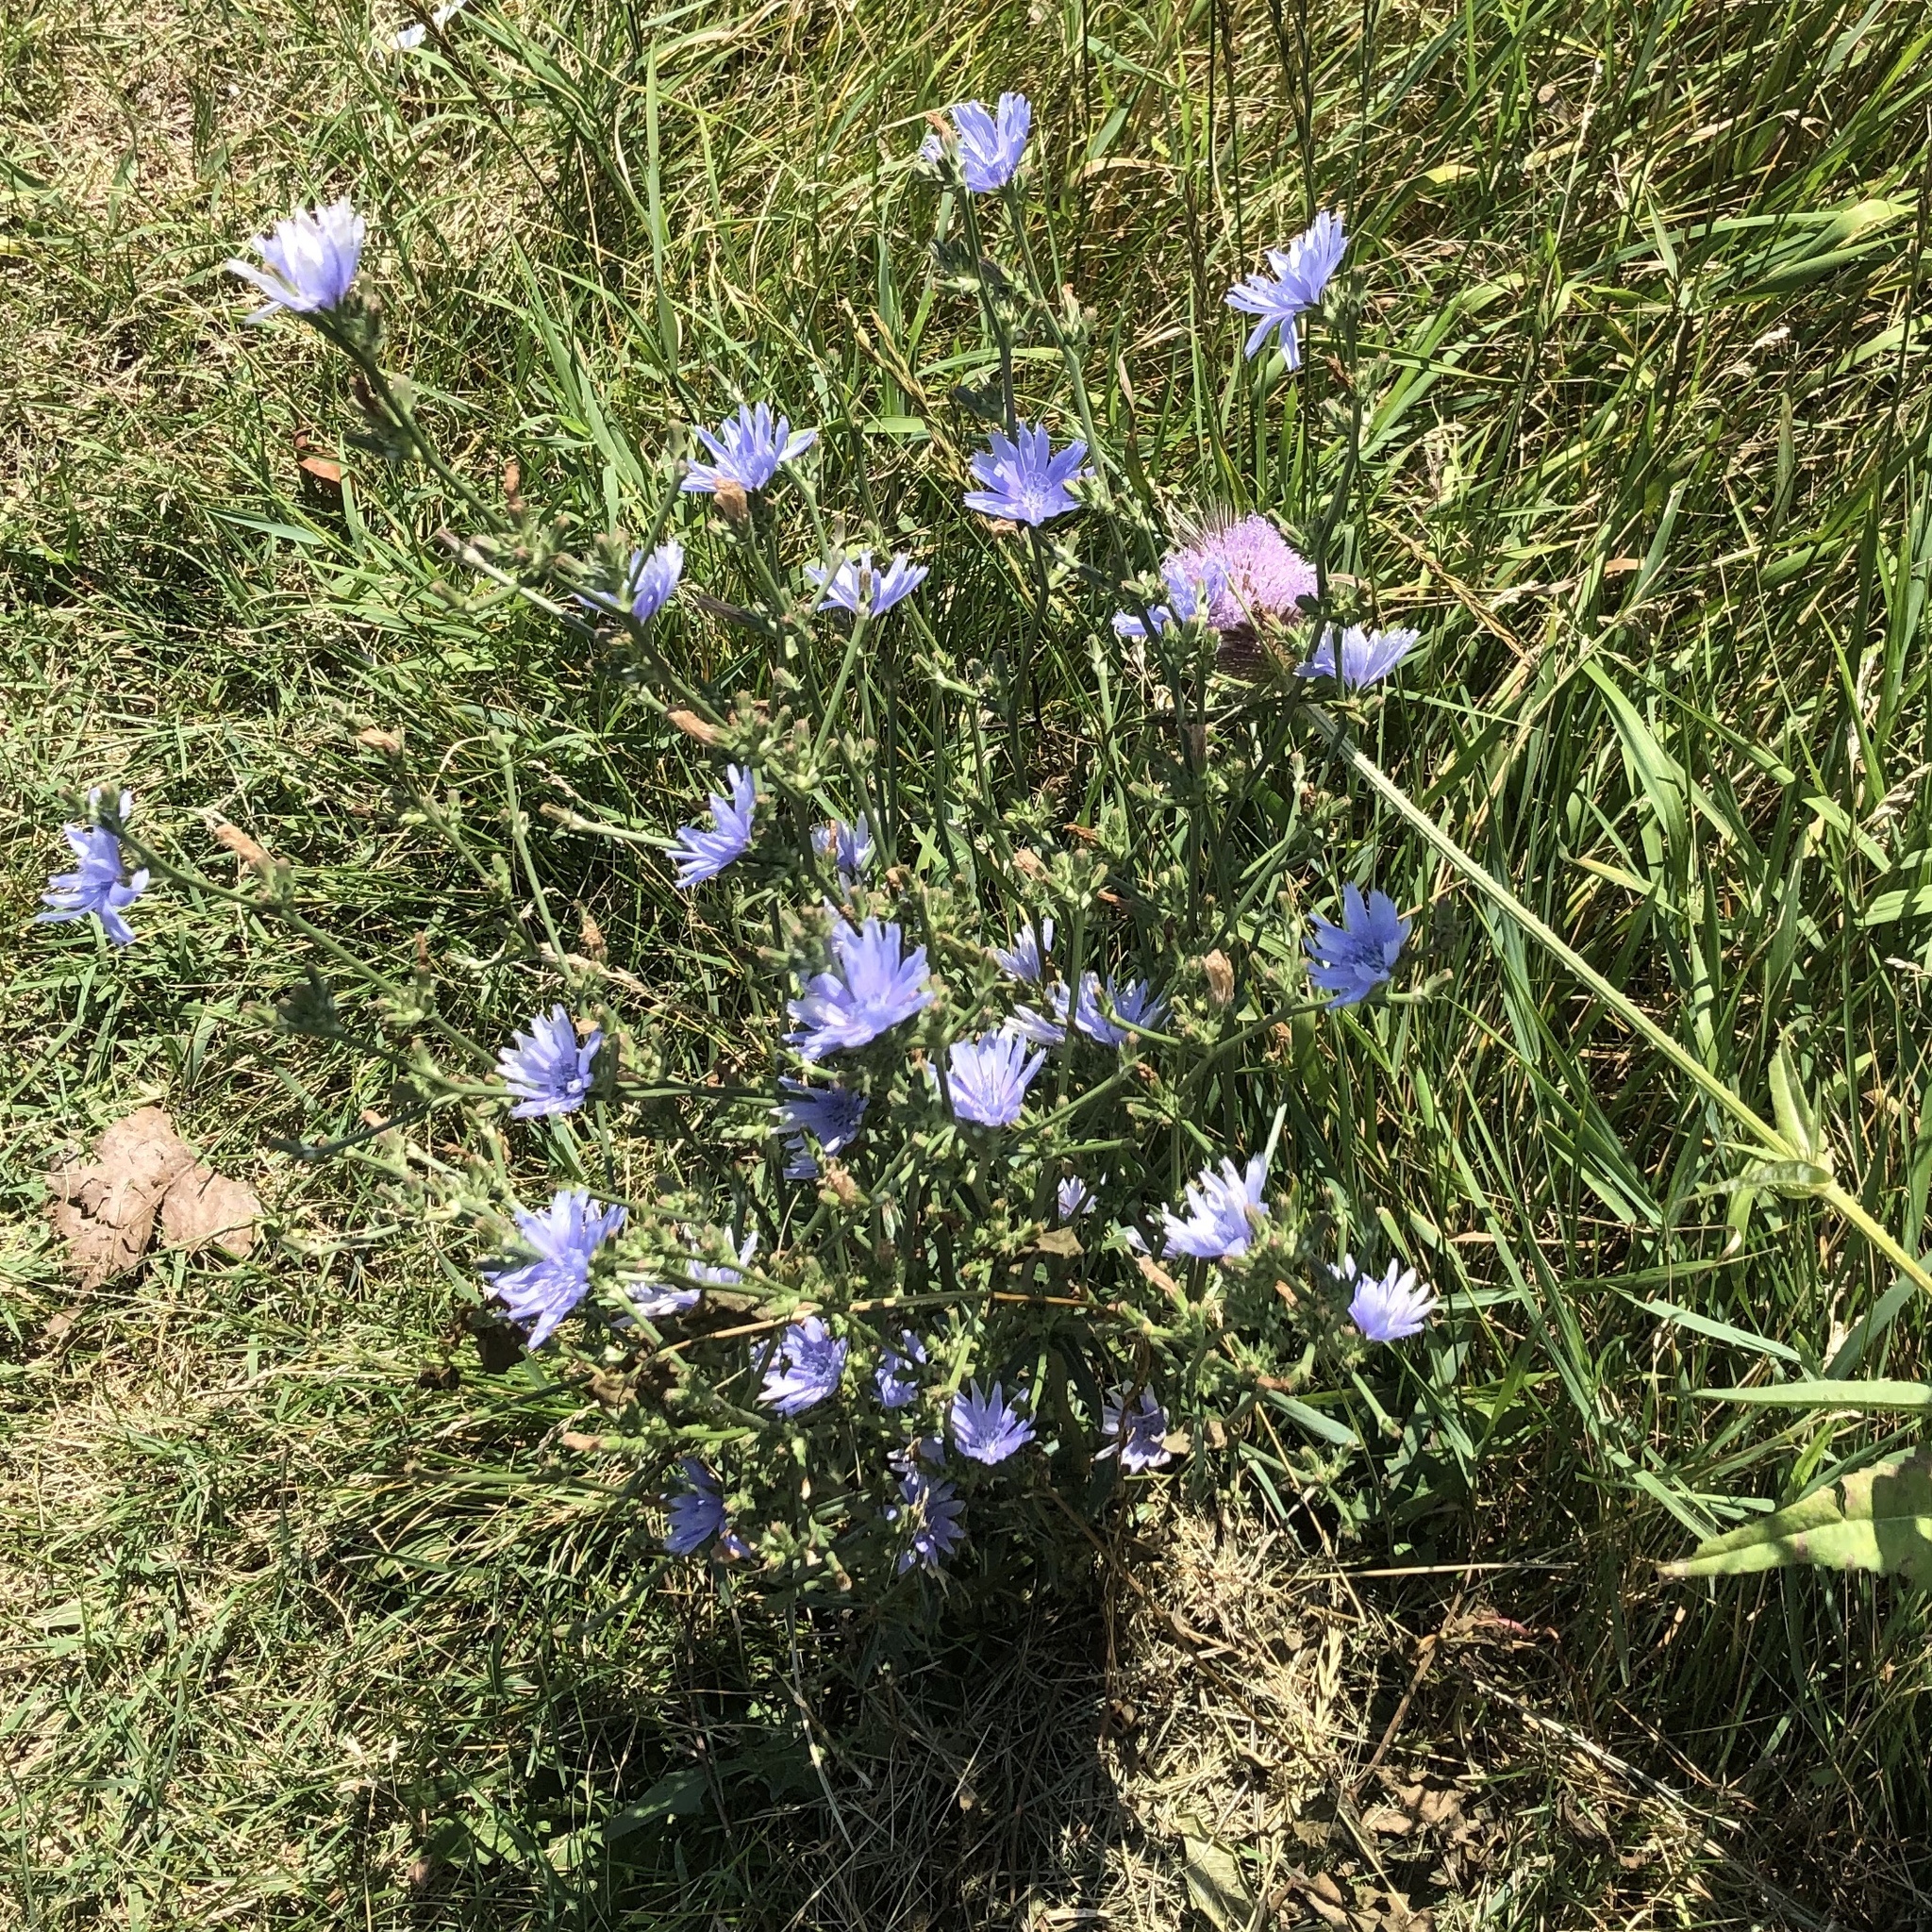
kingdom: Plantae
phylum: Tracheophyta
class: Magnoliopsida
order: Asterales
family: Asteraceae
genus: Cichorium
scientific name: Cichorium intybus
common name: Chicory
